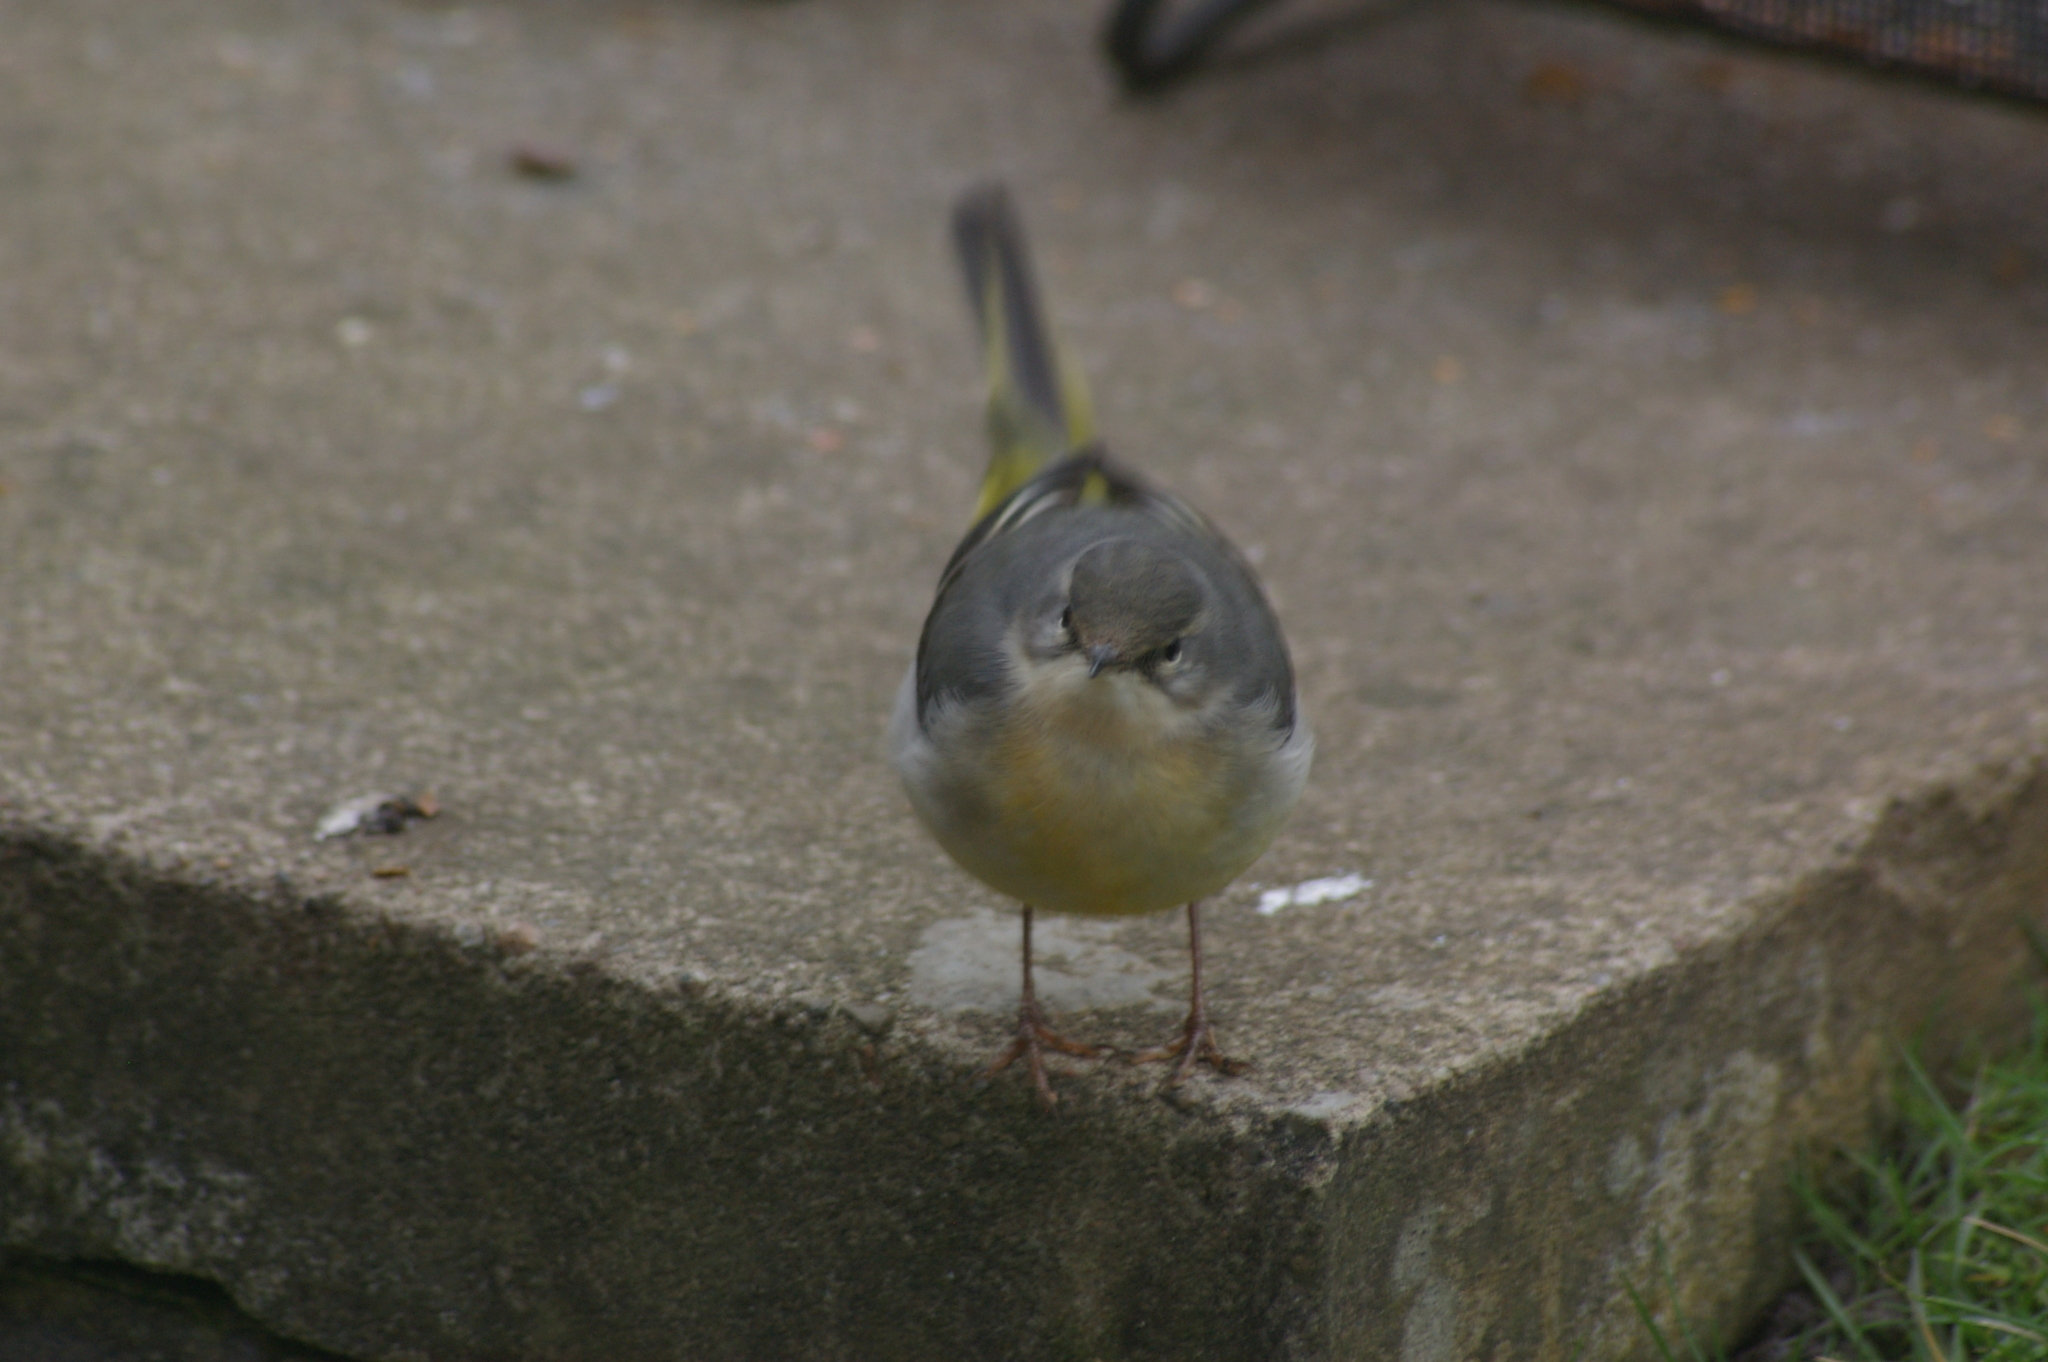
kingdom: Animalia
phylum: Chordata
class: Aves
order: Passeriformes
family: Motacillidae
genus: Motacilla
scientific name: Motacilla cinerea
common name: Grey wagtail
